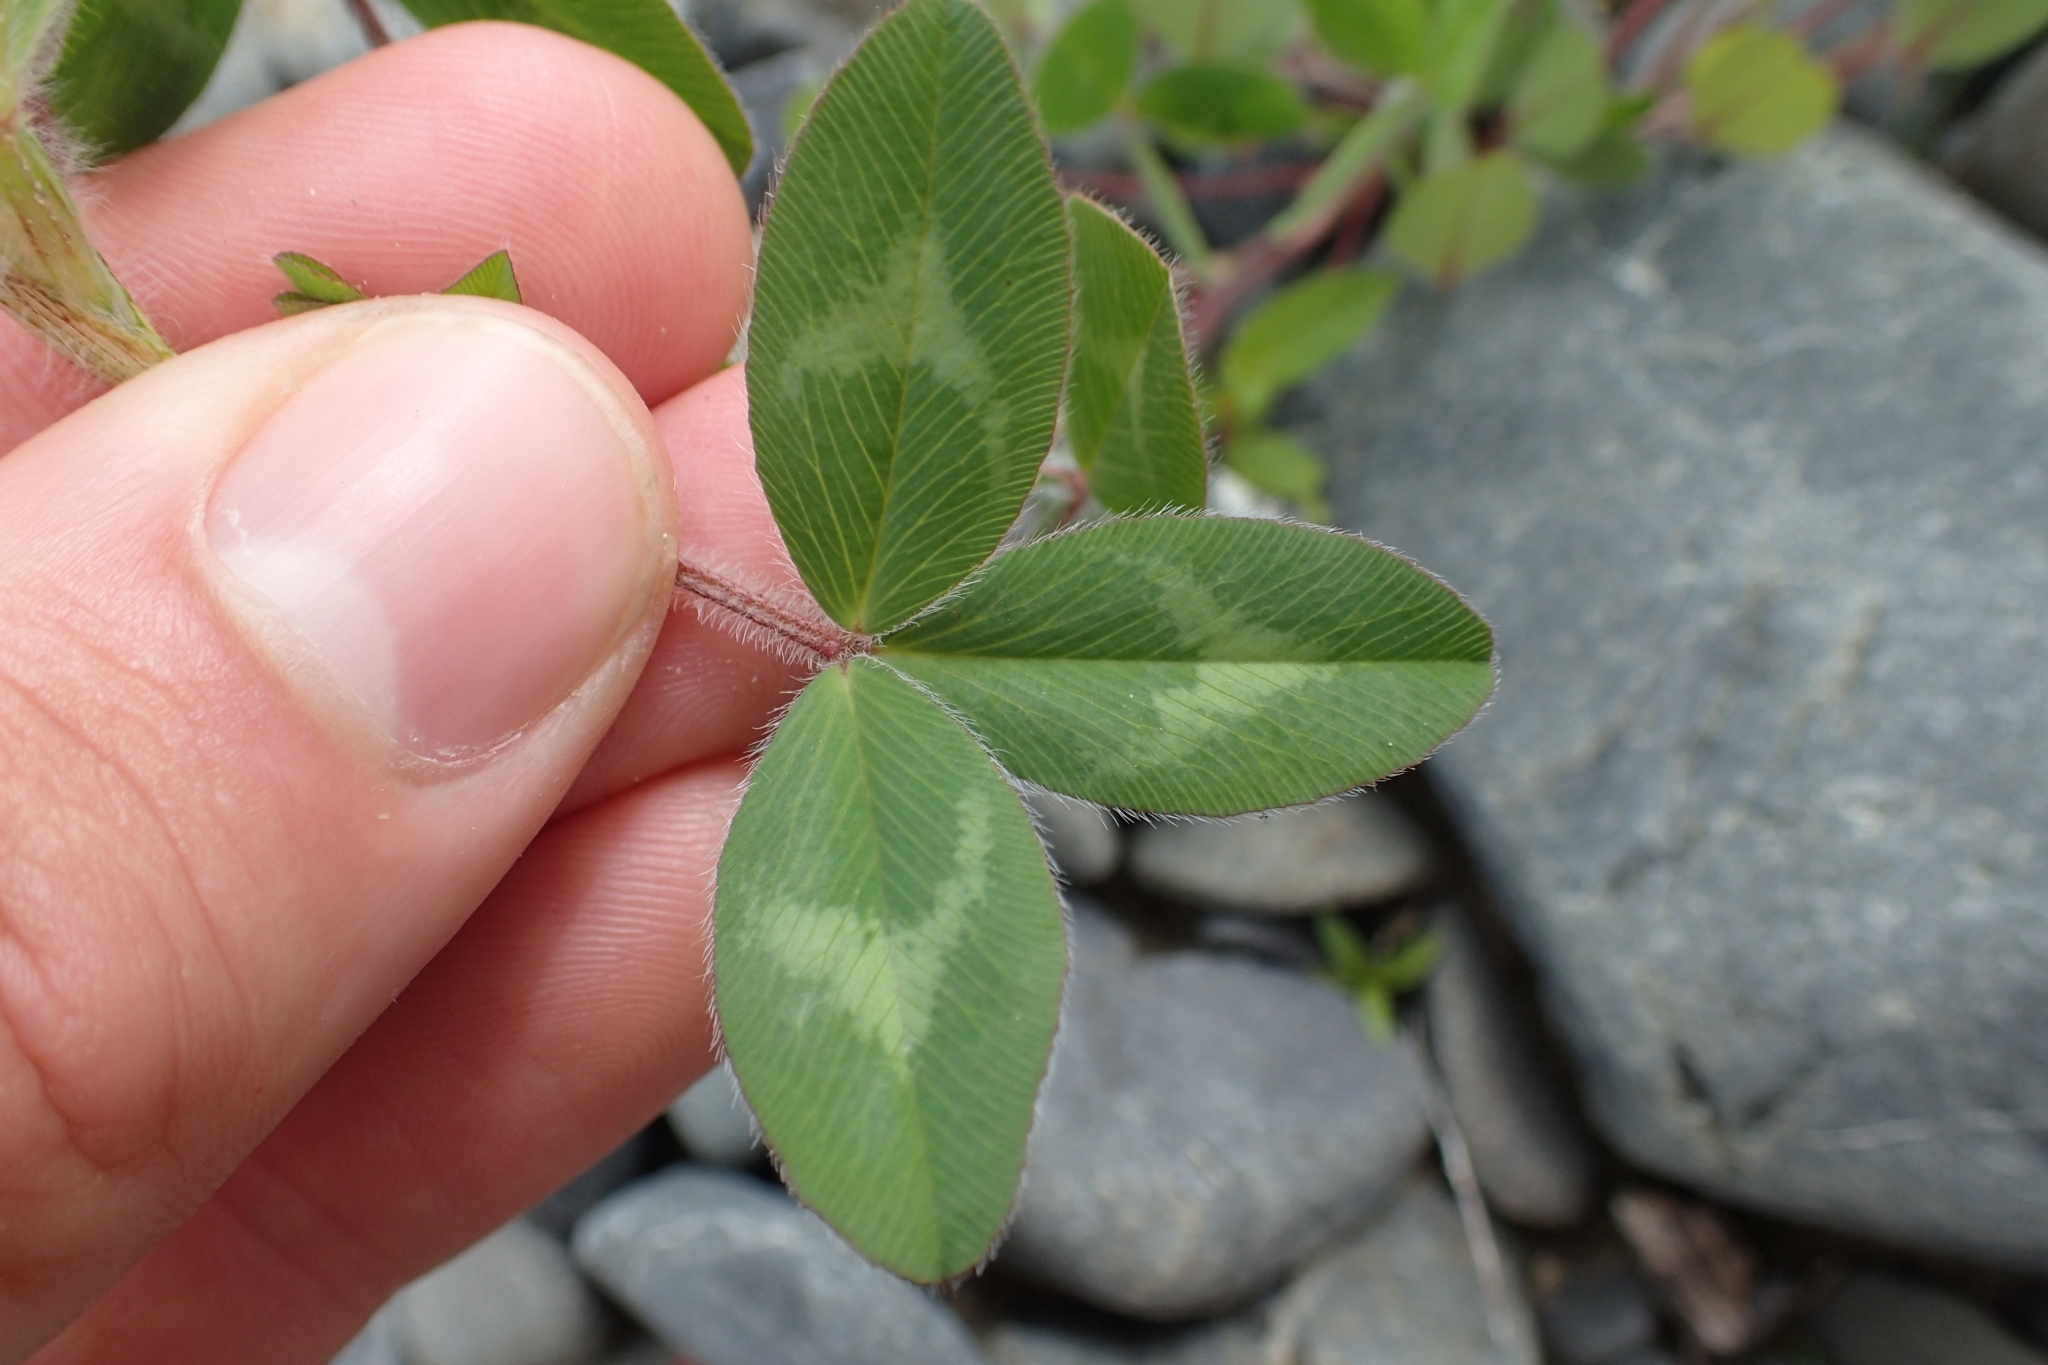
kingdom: Plantae
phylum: Tracheophyta
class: Magnoliopsida
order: Fabales
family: Fabaceae
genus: Trifolium
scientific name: Trifolium pratense
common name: Red clover
